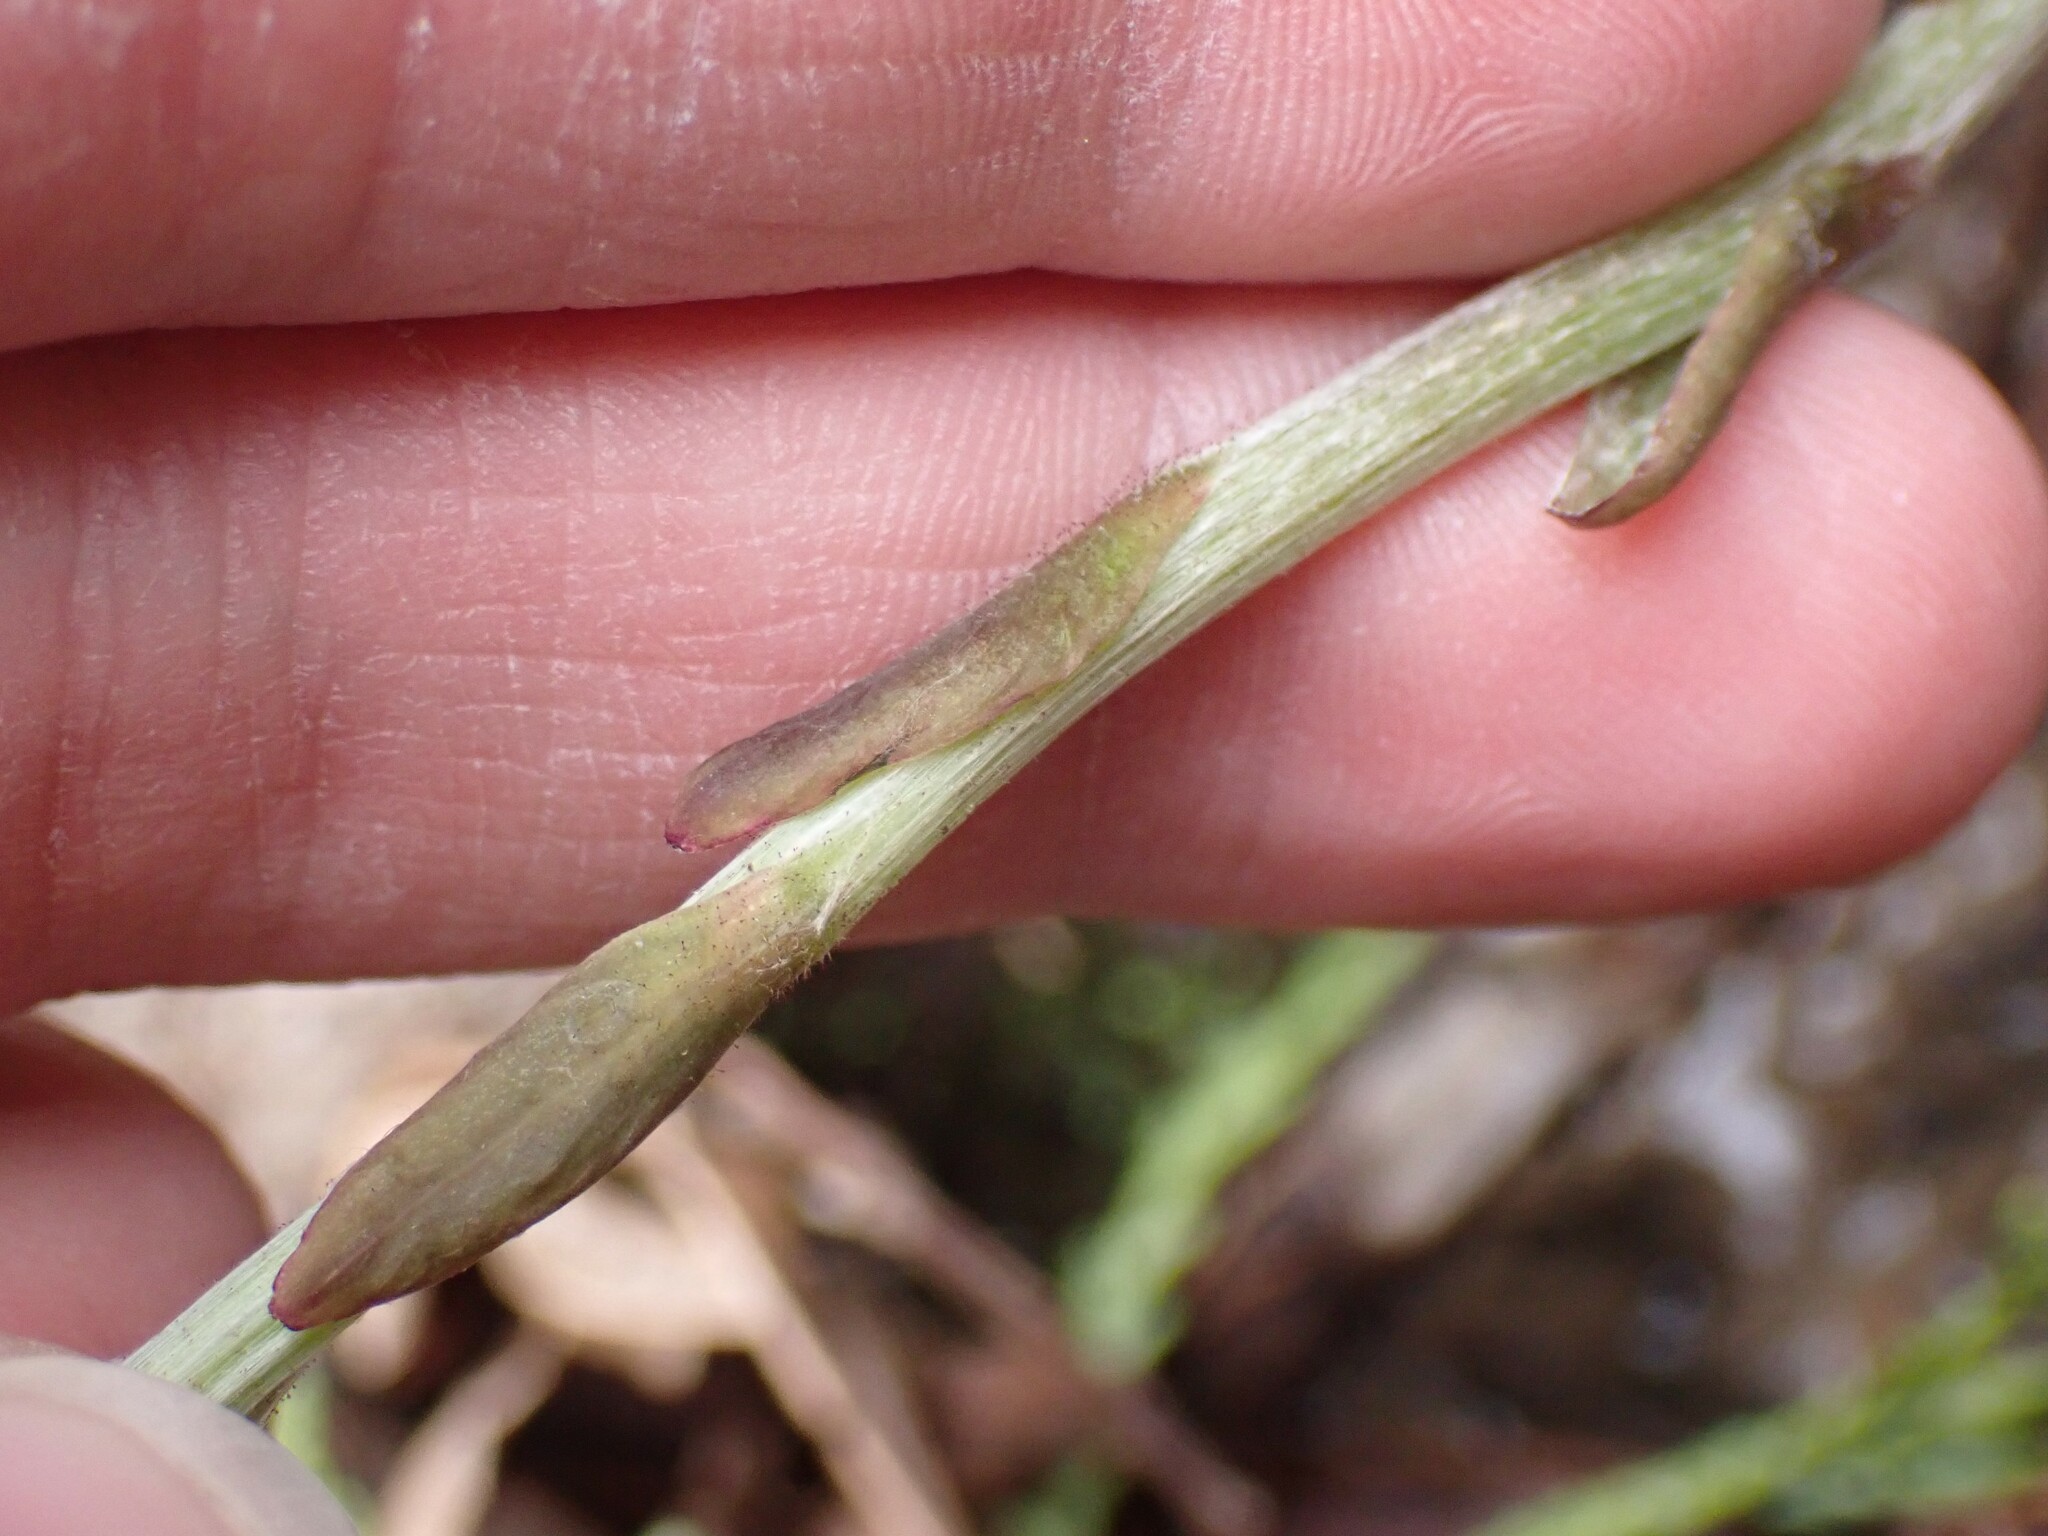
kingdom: Plantae
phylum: Tracheophyta
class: Magnoliopsida
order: Asterales
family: Asteraceae
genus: Tussilago
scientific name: Tussilago farfara
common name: Coltsfoot
